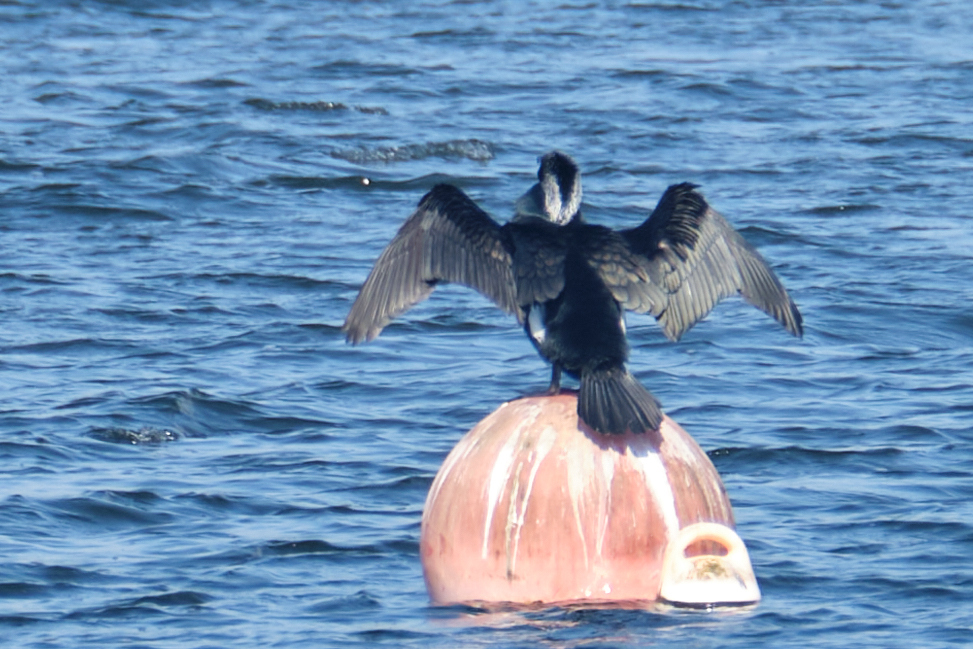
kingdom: Animalia
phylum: Chordata
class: Aves
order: Suliformes
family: Phalacrocoracidae
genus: Phalacrocorax
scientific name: Phalacrocorax carbo
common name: Great cormorant
